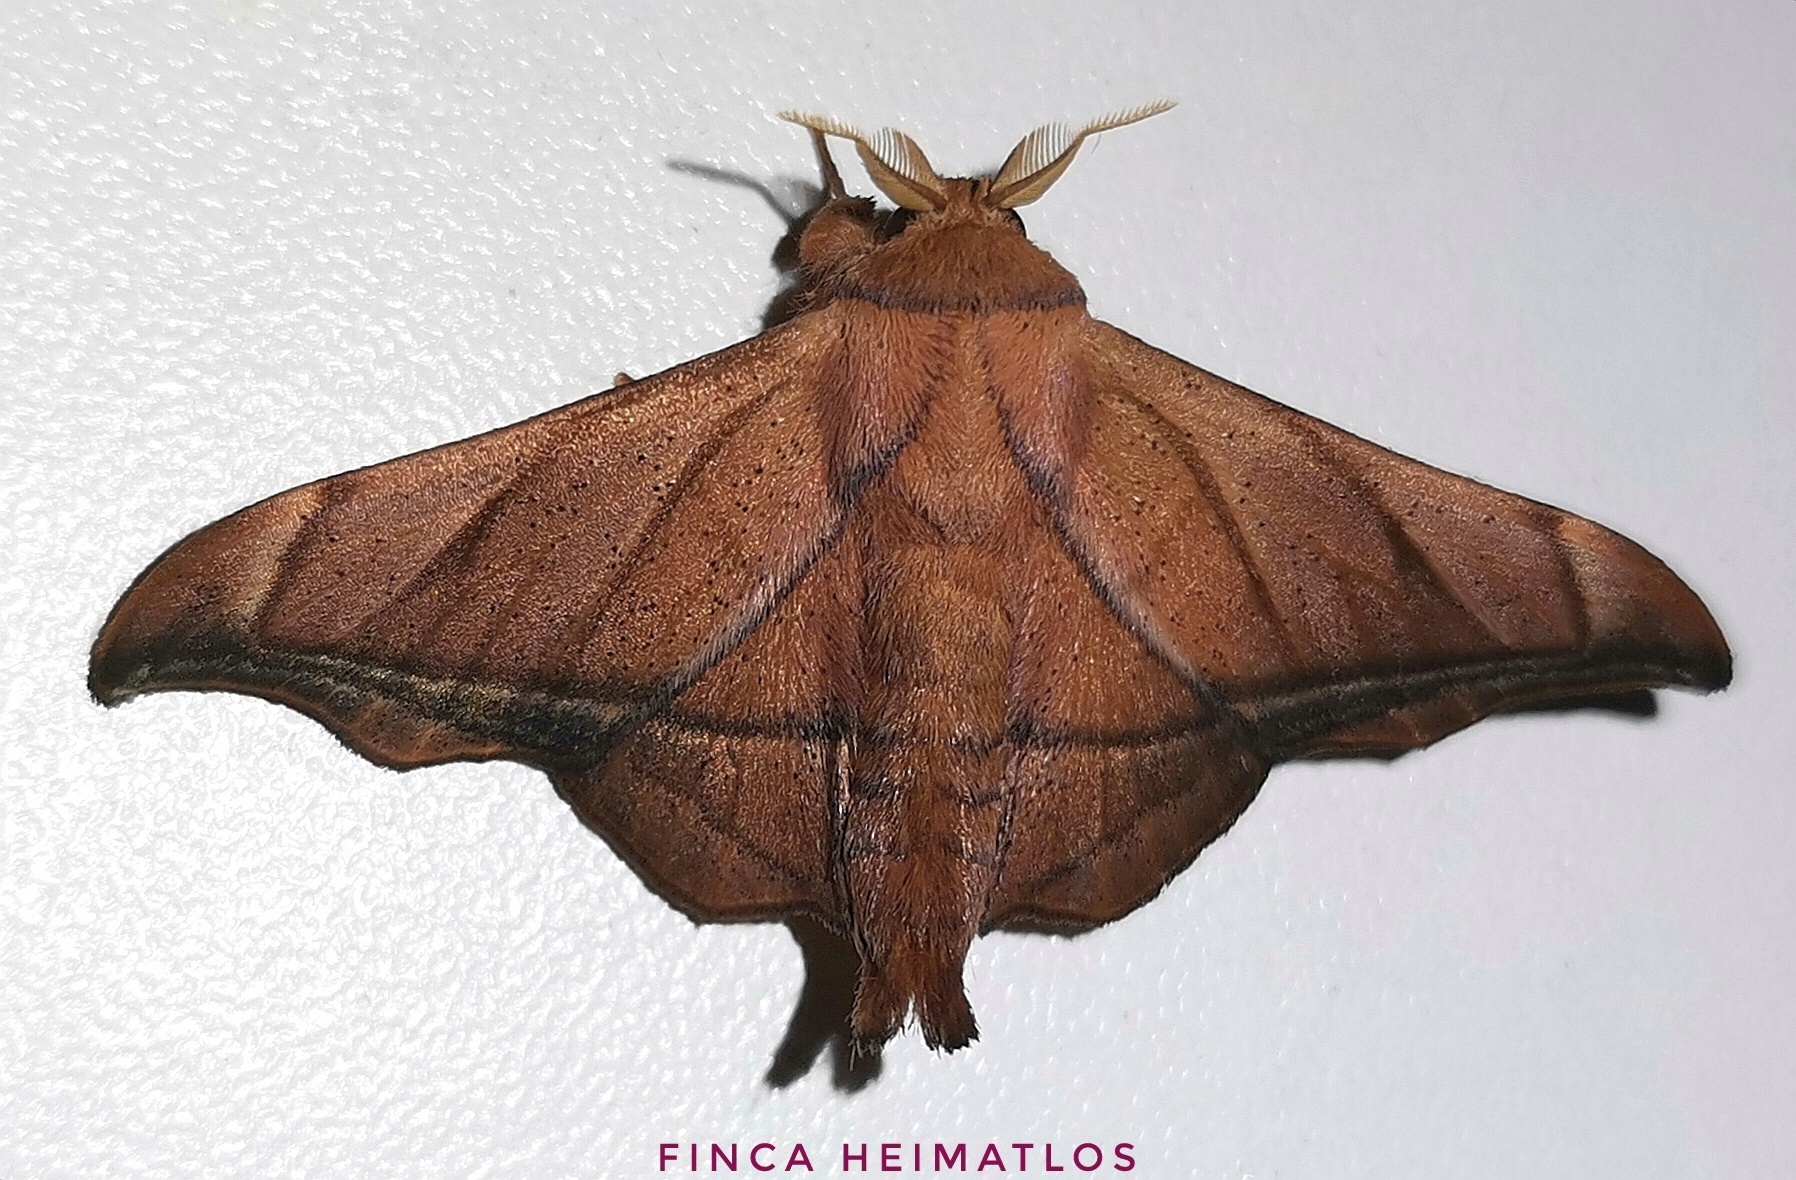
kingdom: Animalia
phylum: Arthropoda
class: Insecta
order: Lepidoptera
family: Mimallonidae
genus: Biterolfa
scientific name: Biterolfa rana
